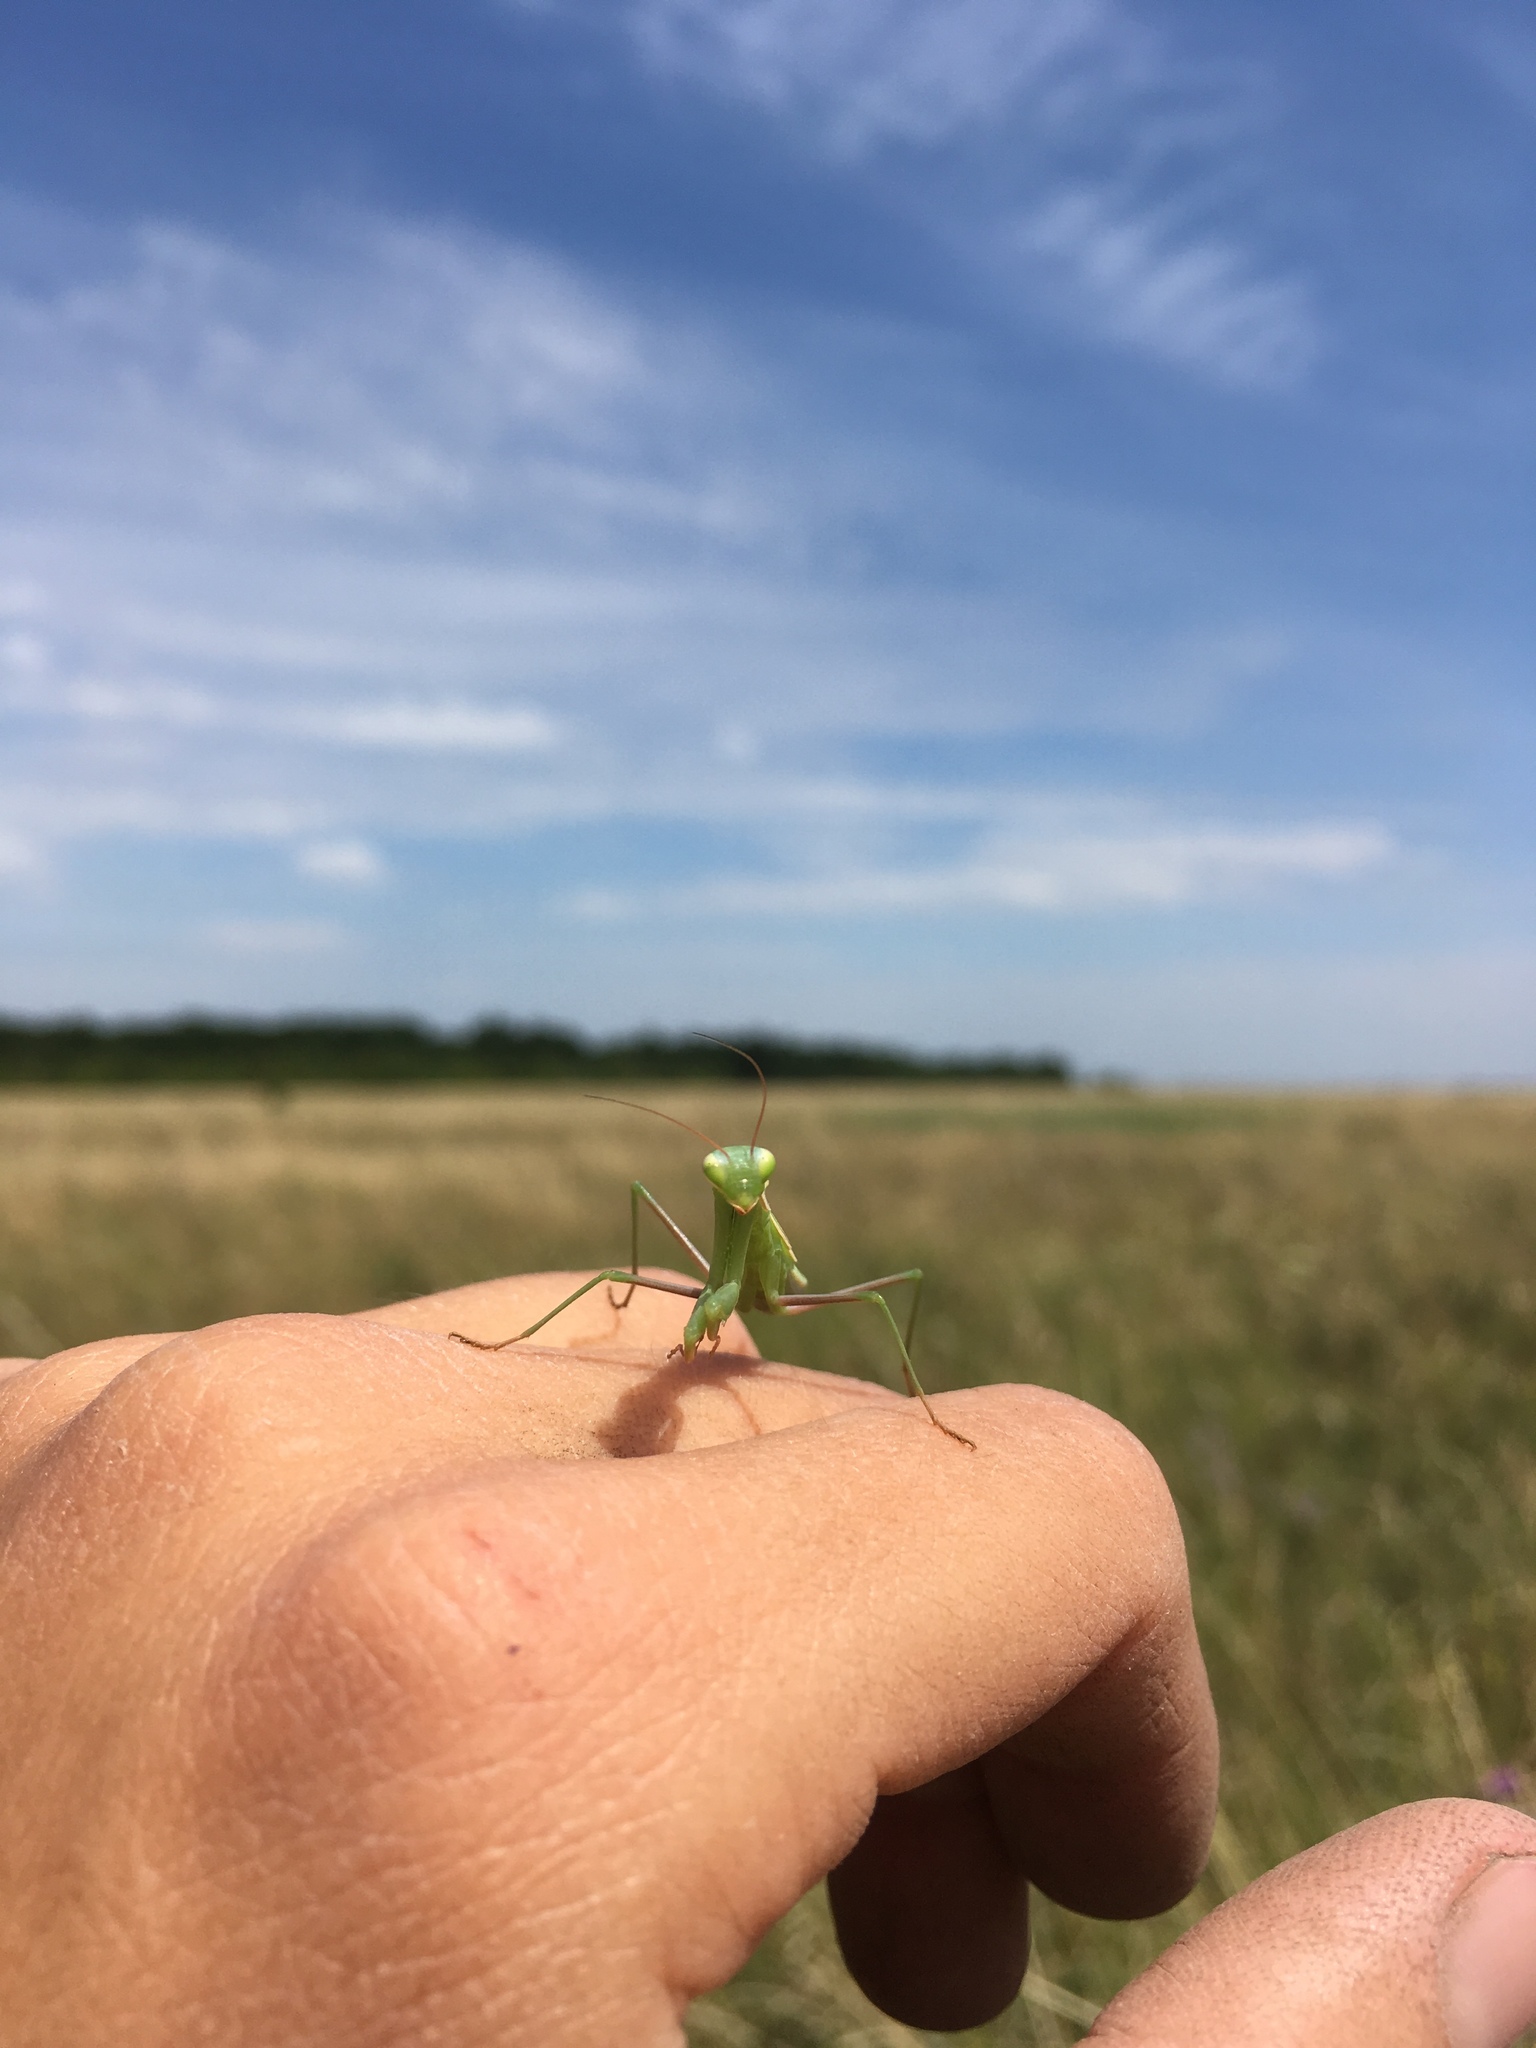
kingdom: Animalia
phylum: Arthropoda
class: Insecta
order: Mantodea
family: Mantidae
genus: Mantis
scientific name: Mantis religiosa
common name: Praying mantis
